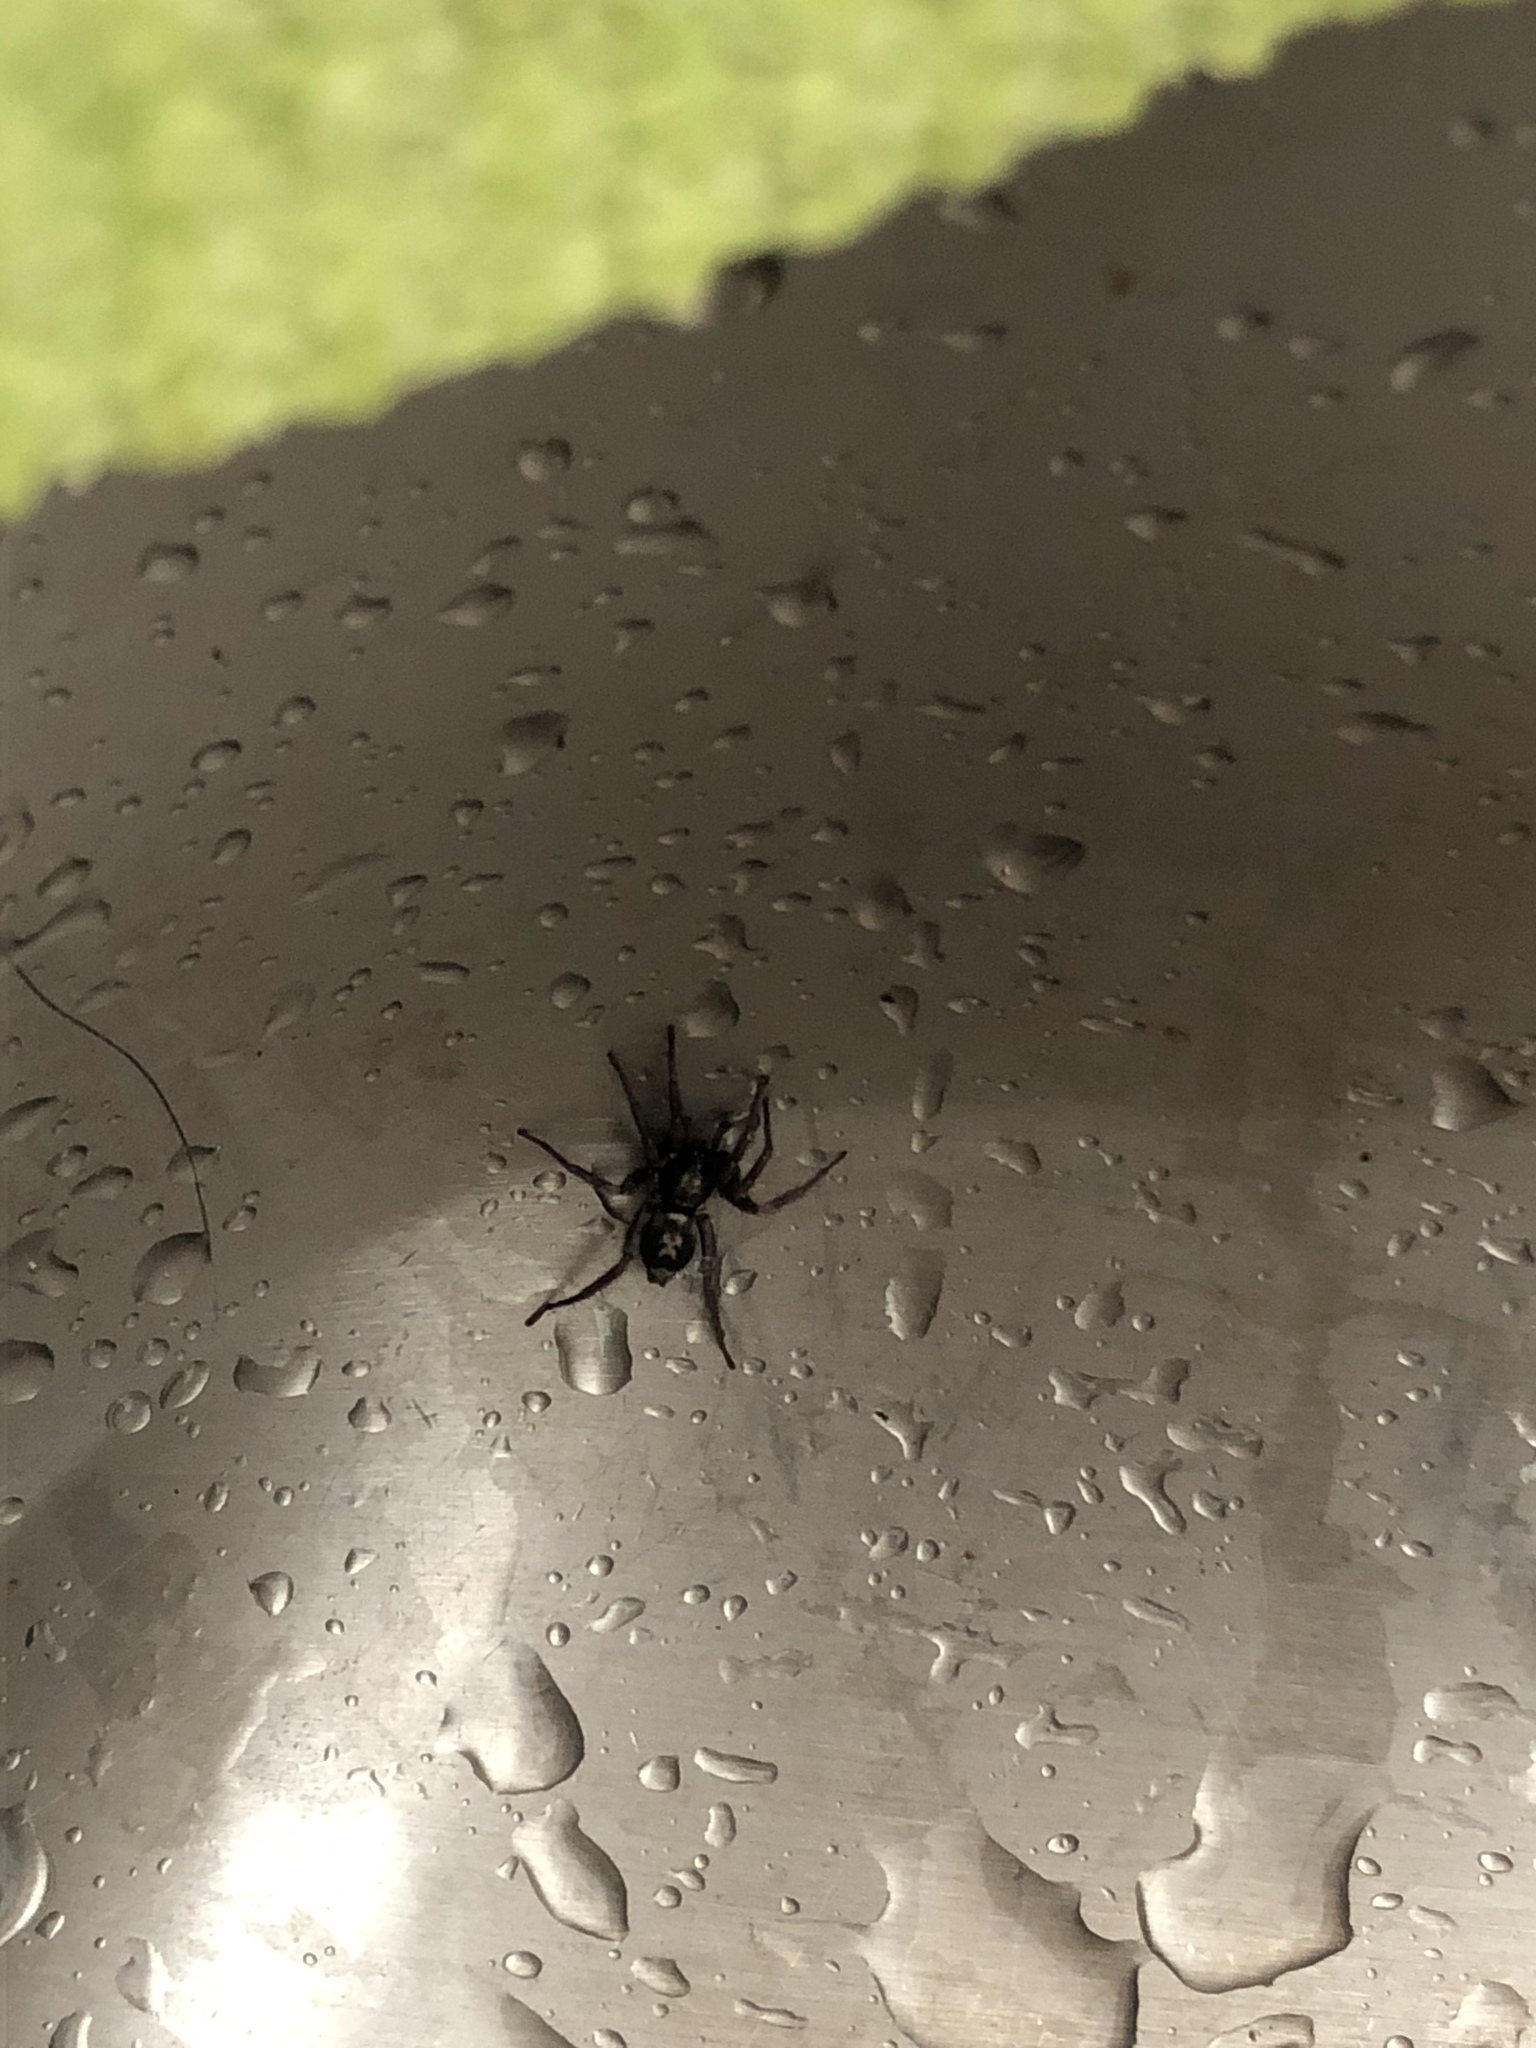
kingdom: Animalia
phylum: Arthropoda
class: Arachnida
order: Araneae
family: Gnaphosidae
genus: Herpyllus
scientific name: Herpyllus ecclesiasticus
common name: Eastern parson spider
